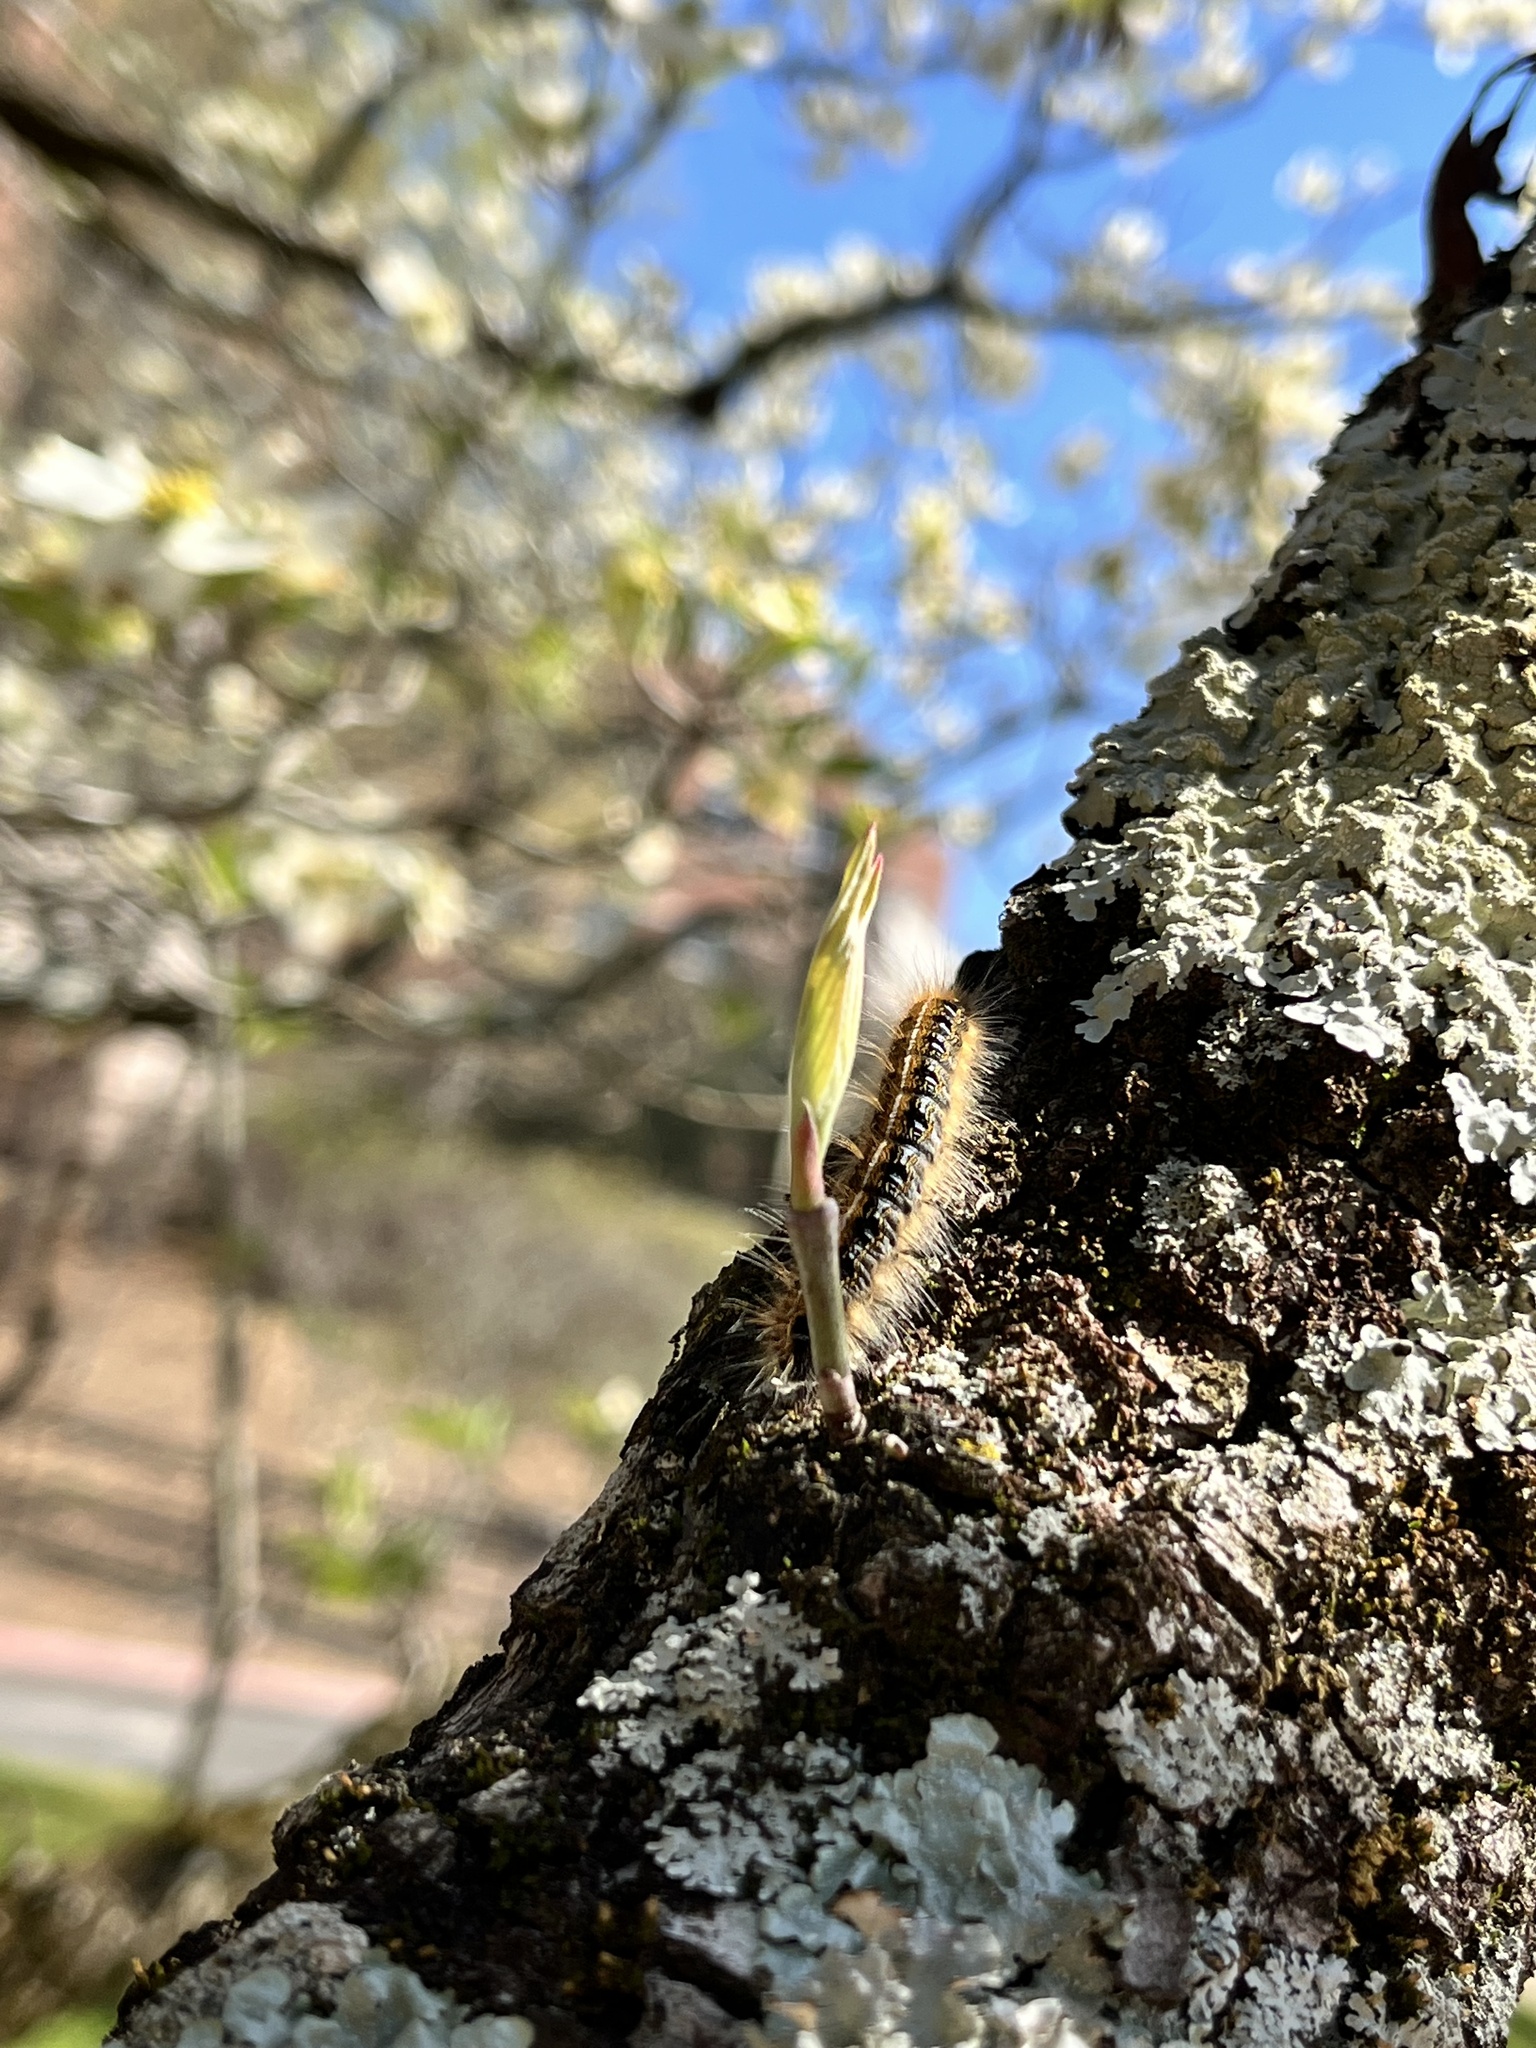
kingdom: Animalia
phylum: Arthropoda
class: Insecta
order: Lepidoptera
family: Lasiocampidae
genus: Malacosoma
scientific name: Malacosoma americana
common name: Eastern tent caterpillar moth
